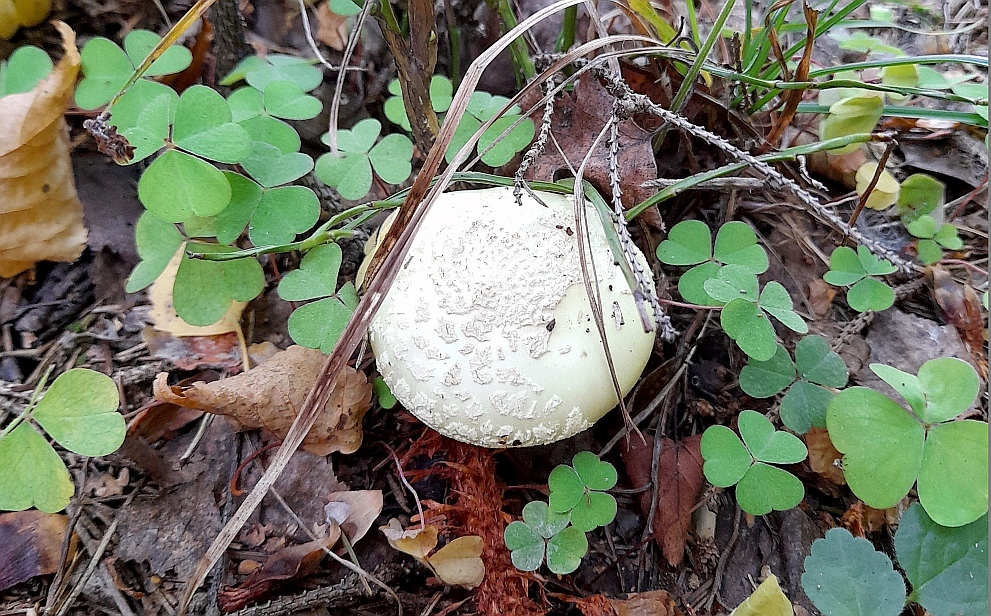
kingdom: Plantae
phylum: Tracheophyta
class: Magnoliopsida
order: Oxalidales
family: Oxalidaceae
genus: Oxalis
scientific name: Oxalis acetosella
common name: Wood-sorrel
